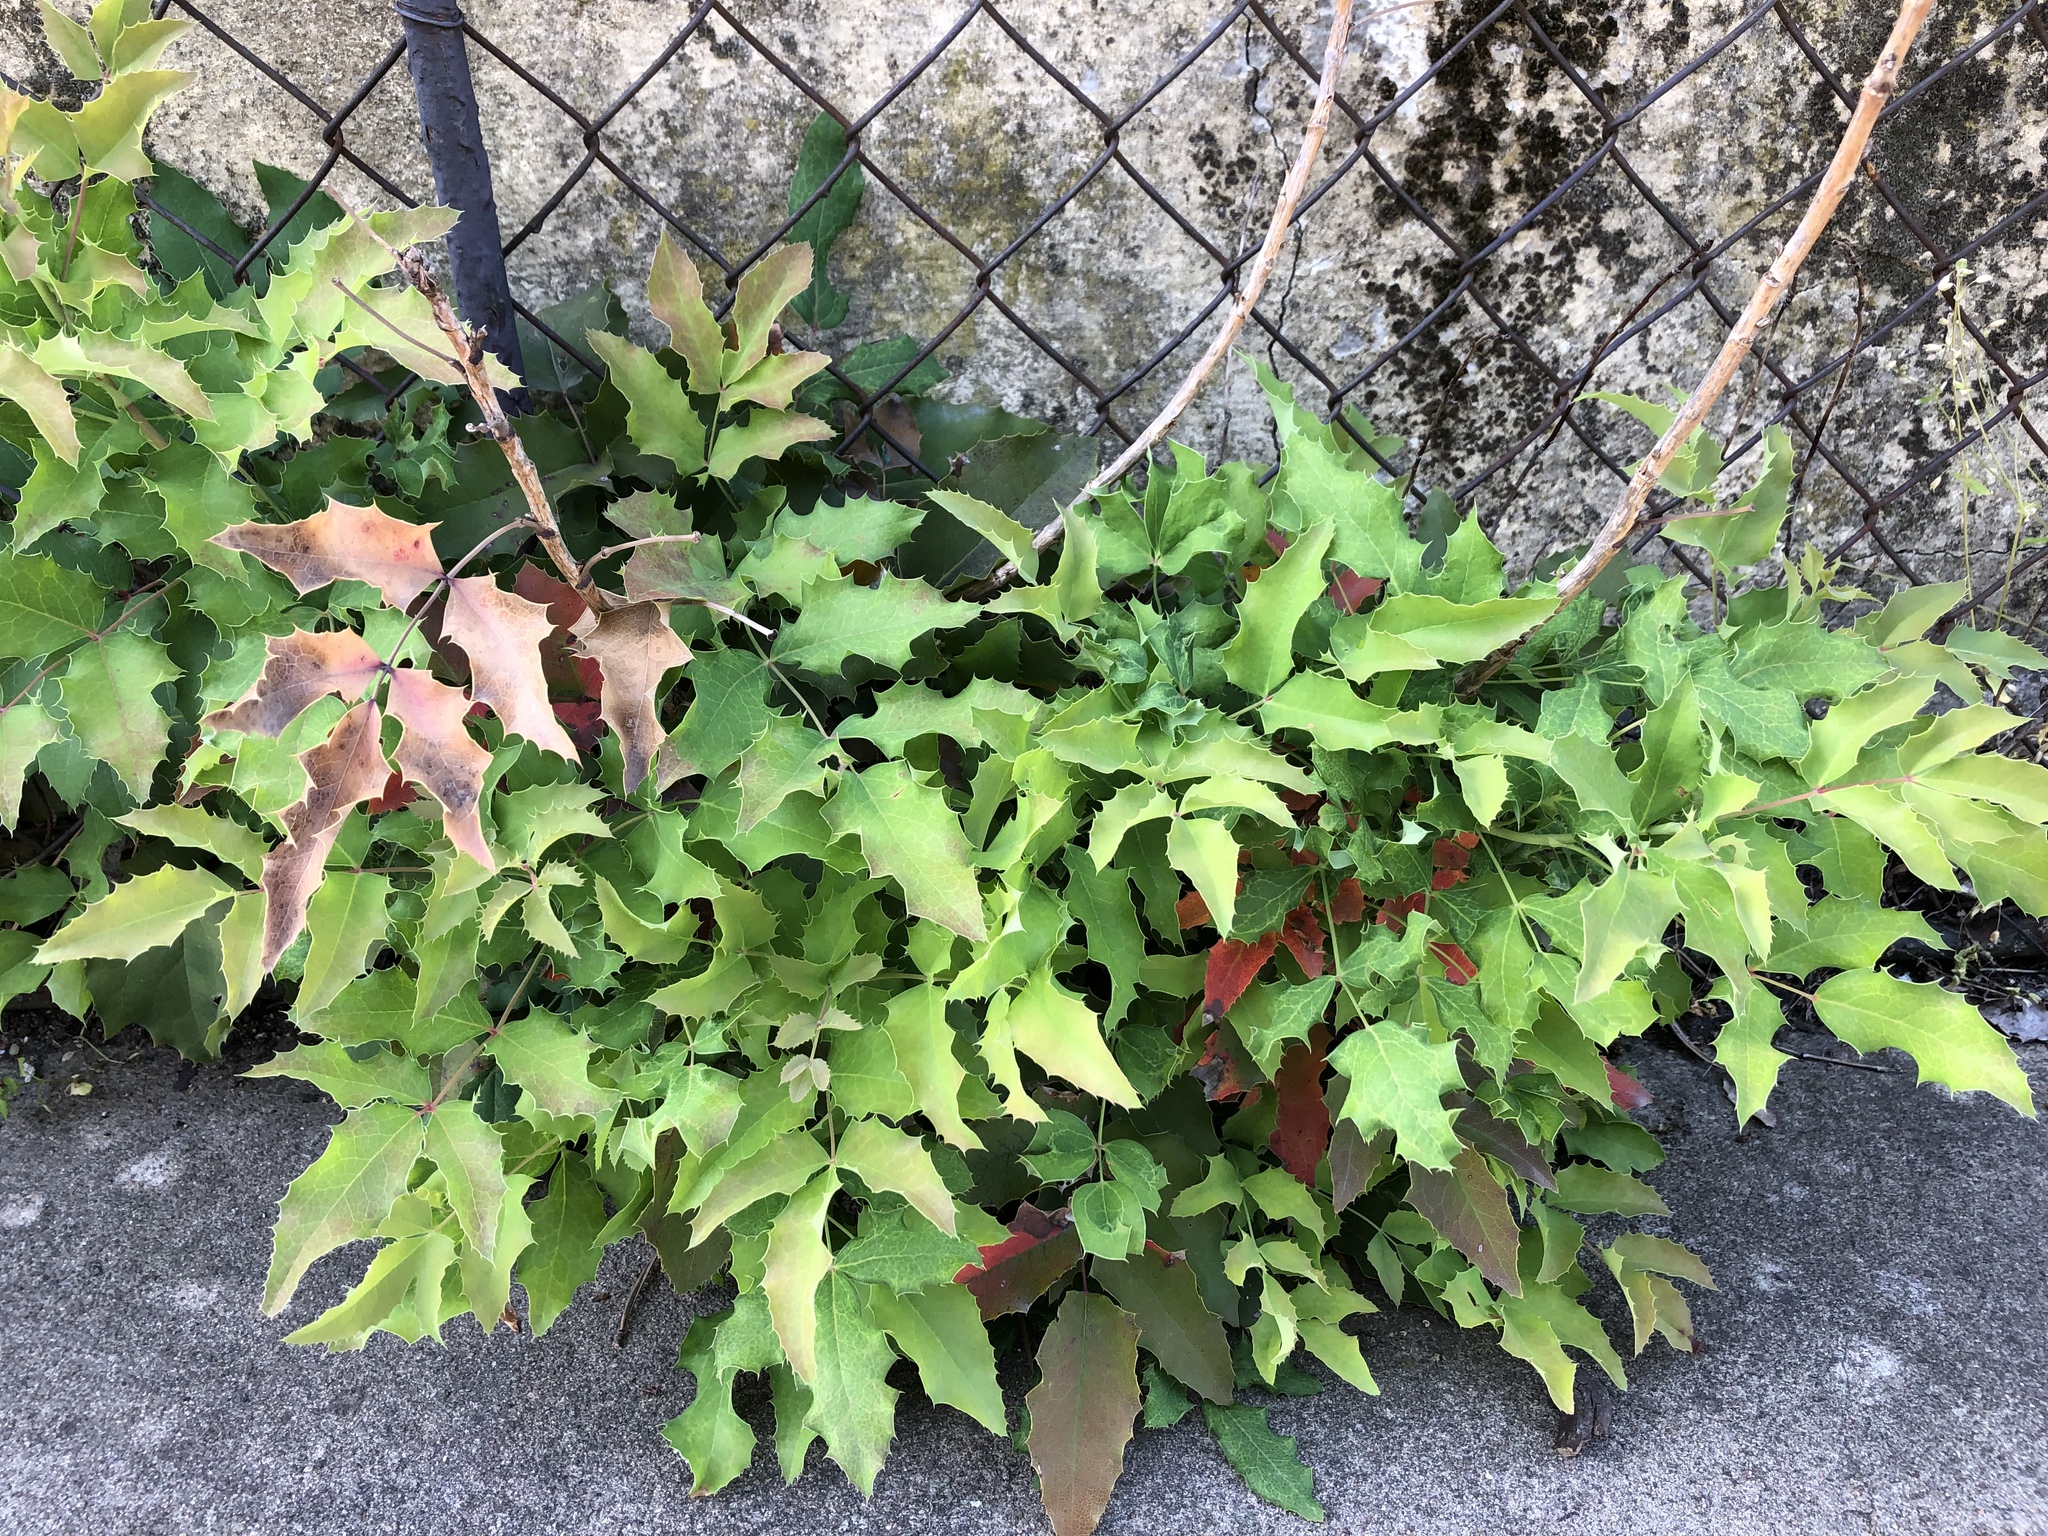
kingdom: Plantae
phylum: Tracheophyta
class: Magnoliopsida
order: Ranunculales
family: Berberidaceae
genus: Mahonia
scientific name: Mahonia aquifolium
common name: Oregon-grape
